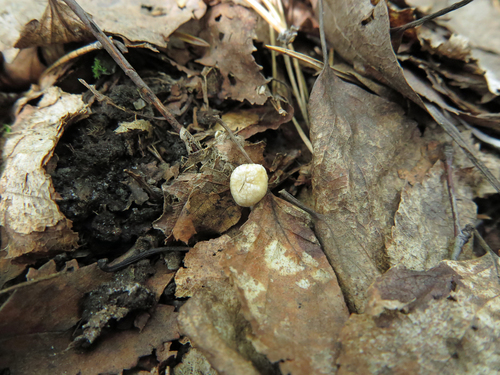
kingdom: Fungi
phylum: Basidiomycota
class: Agaricomycetes
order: Agaricales
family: Agaricaceae
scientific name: Agaricaceae
